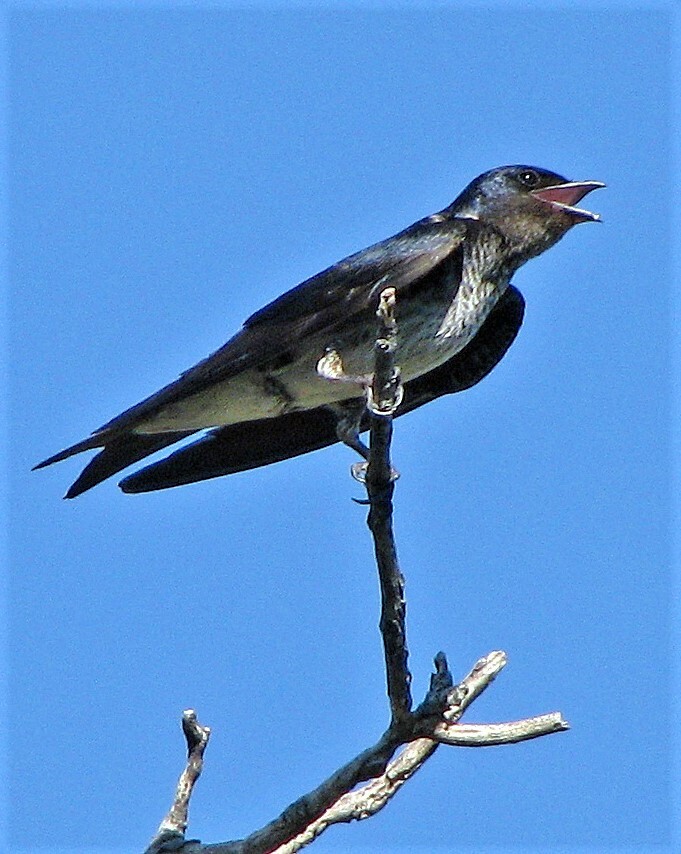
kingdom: Animalia
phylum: Chordata
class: Aves
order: Passeriformes
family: Hirundinidae
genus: Progne
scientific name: Progne chalybea
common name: Grey-breasted martin
